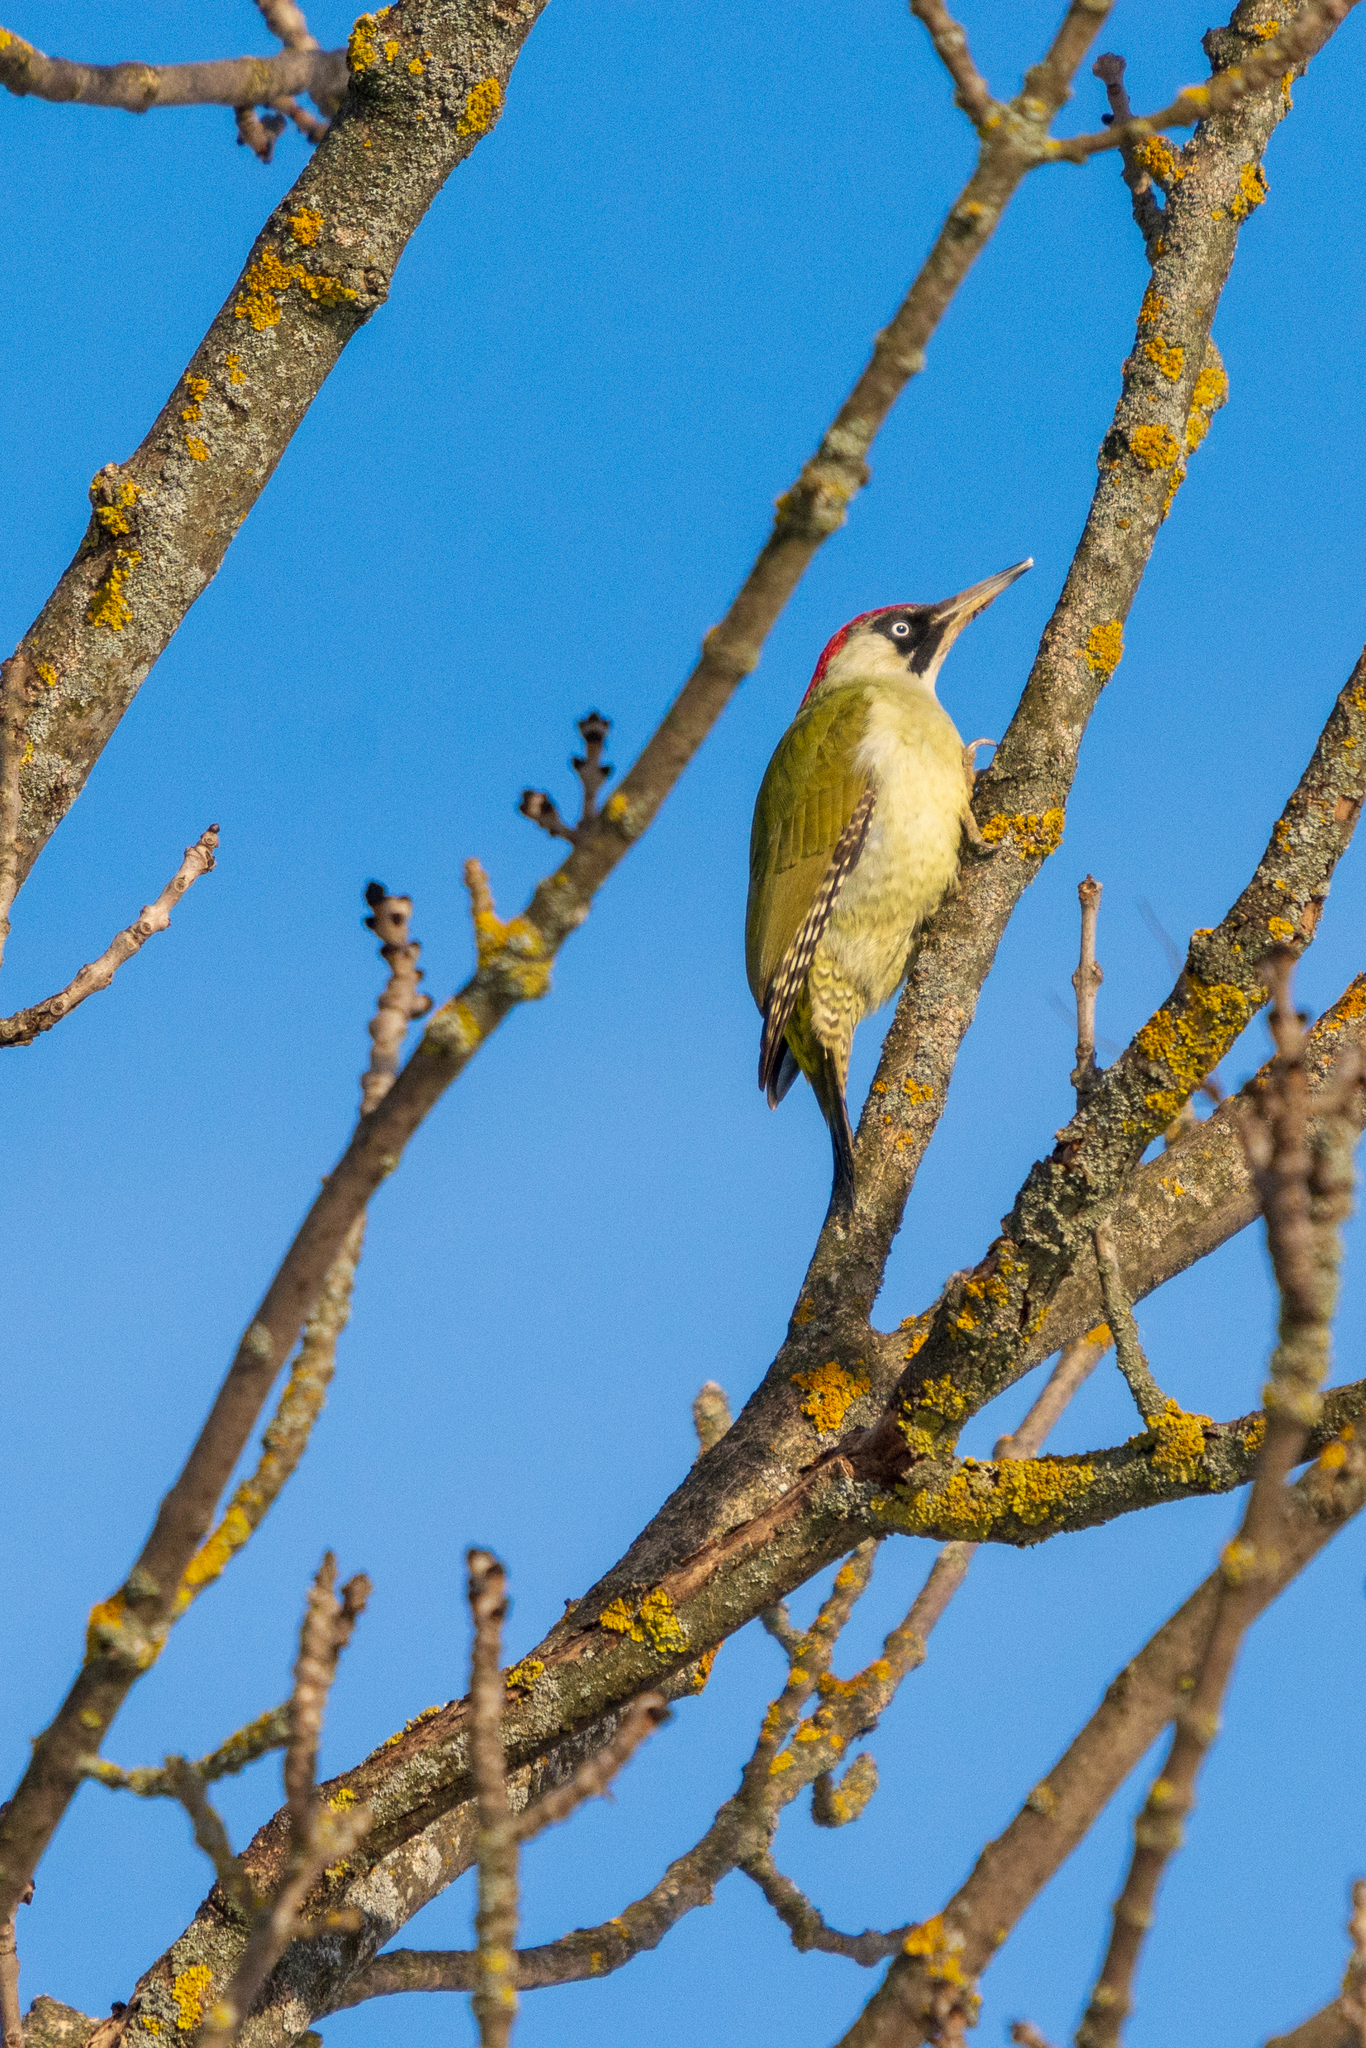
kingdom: Animalia
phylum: Chordata
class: Aves
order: Piciformes
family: Picidae
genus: Picus
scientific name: Picus viridis
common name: European green woodpecker
